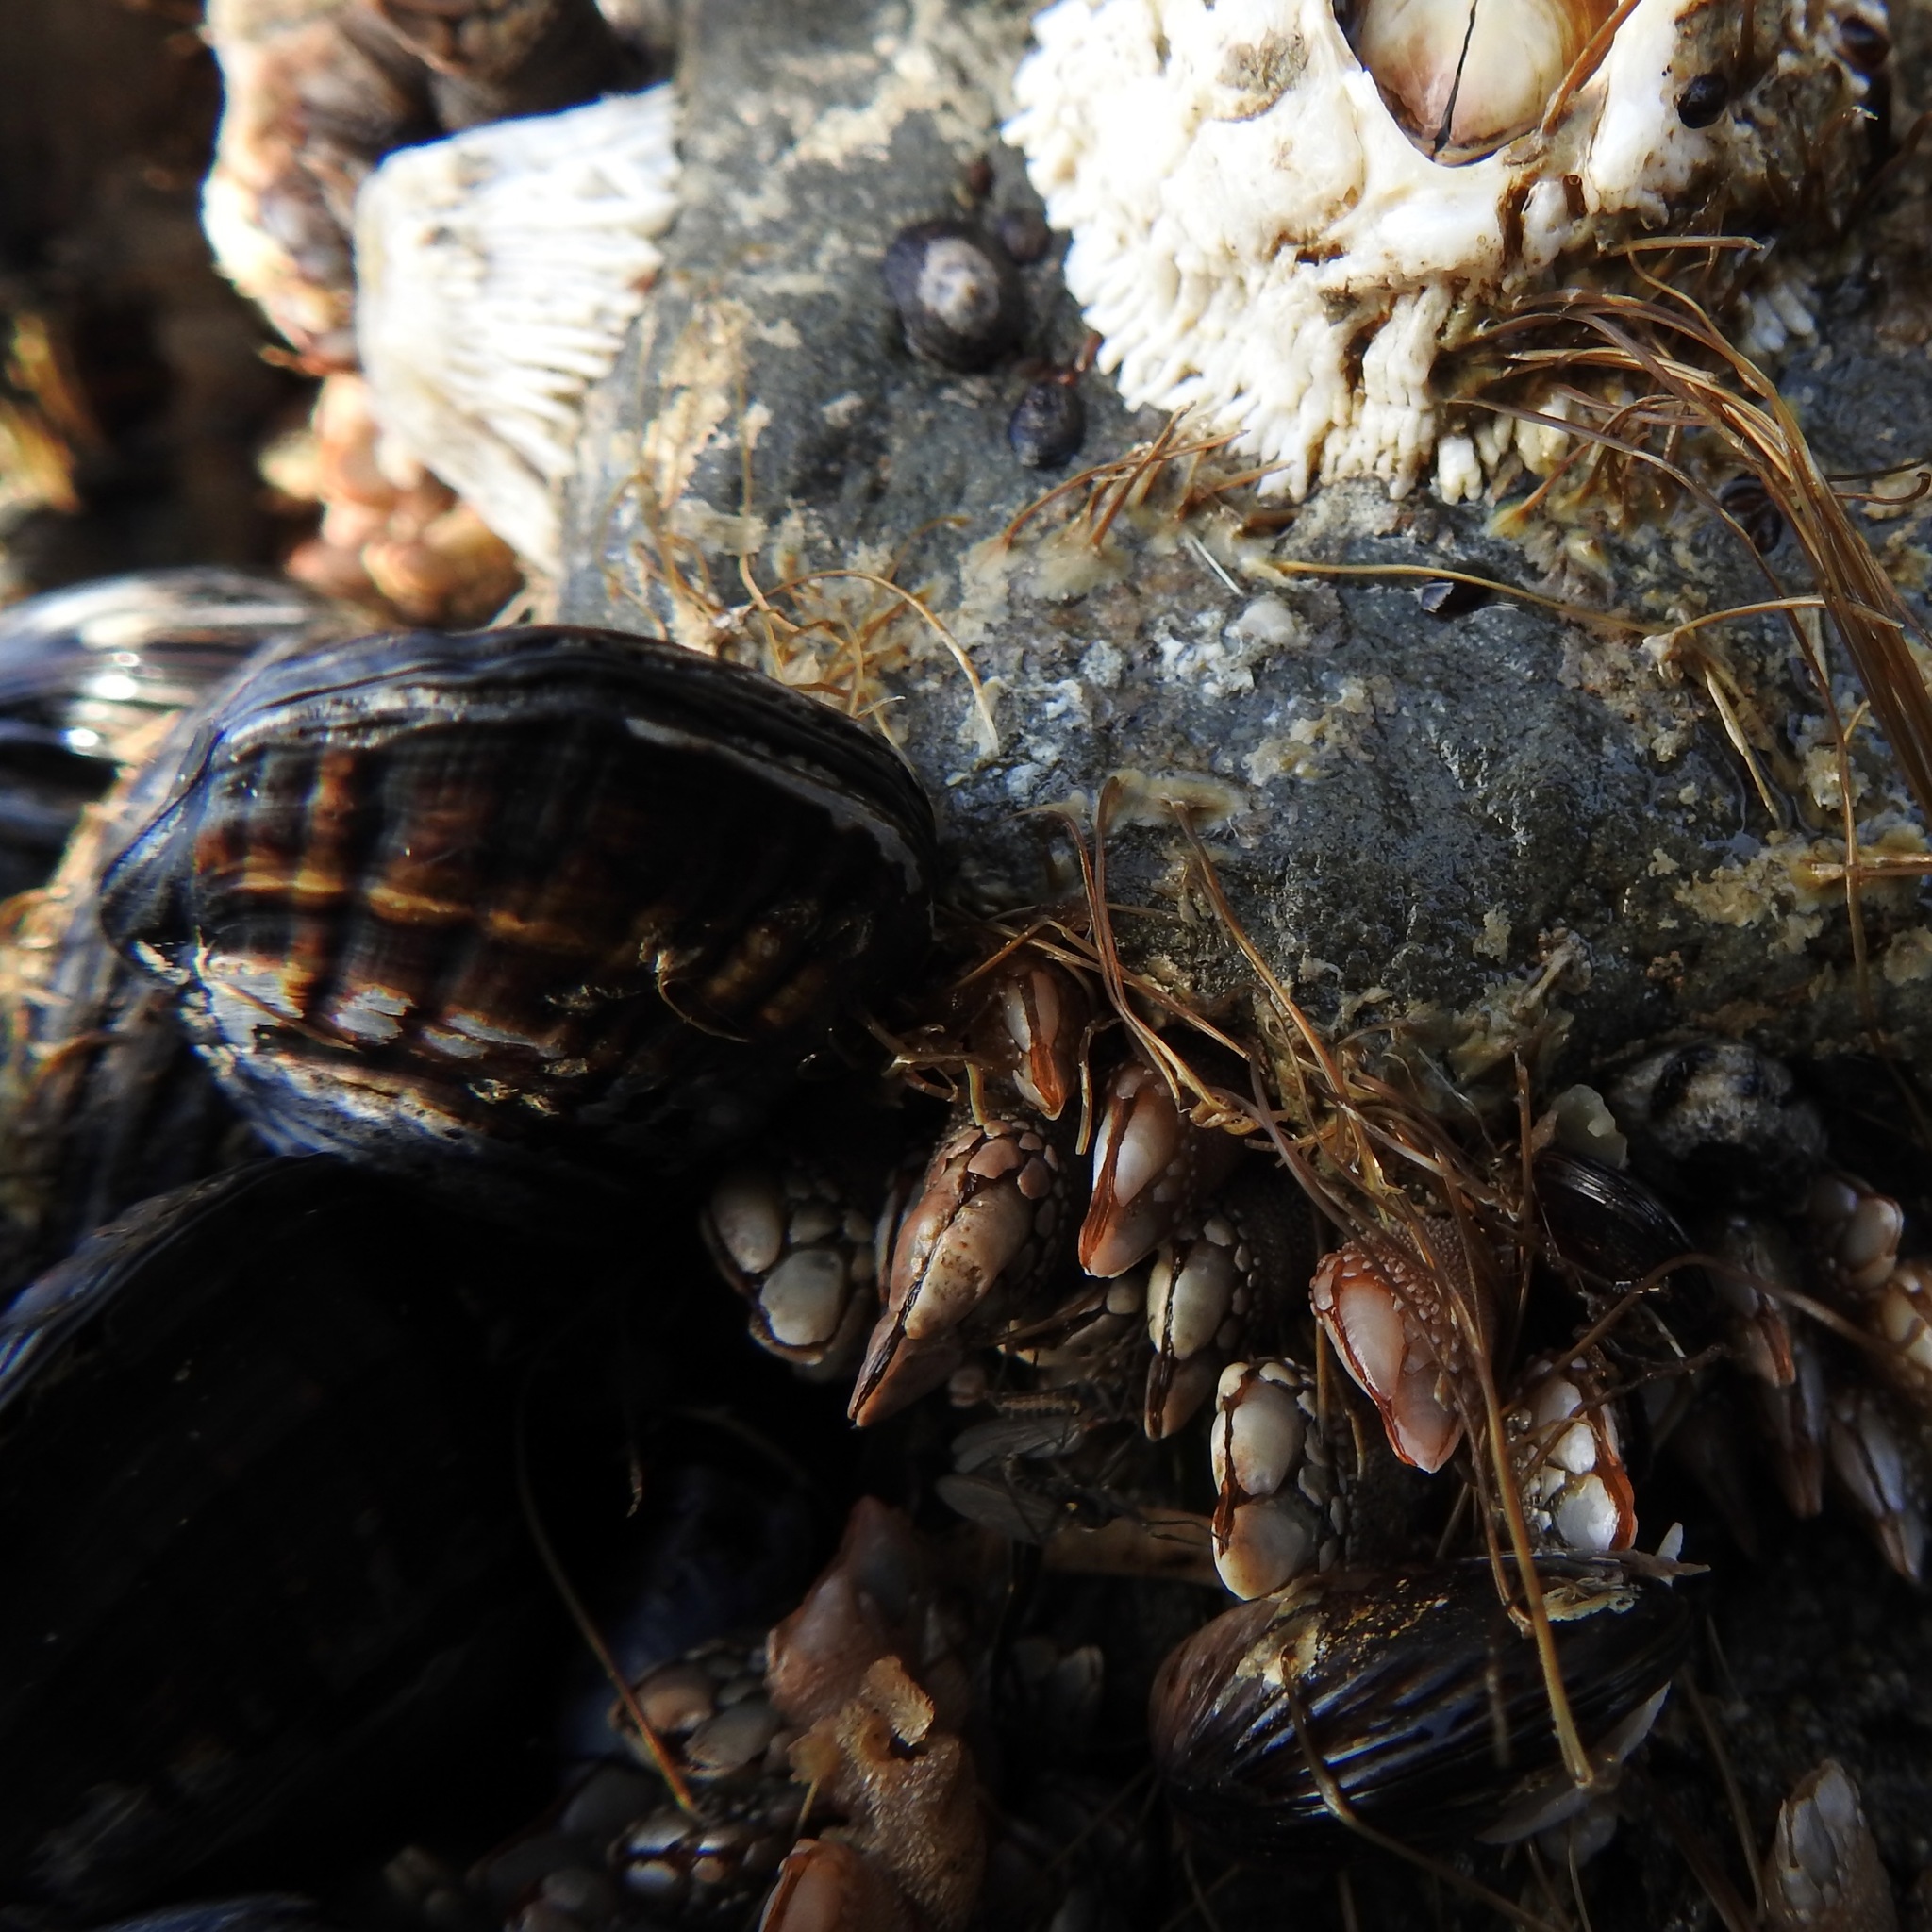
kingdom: Animalia
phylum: Arthropoda
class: Maxillopoda
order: Pedunculata
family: Pollicipedidae
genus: Pollicipes
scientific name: Pollicipes polymerus
